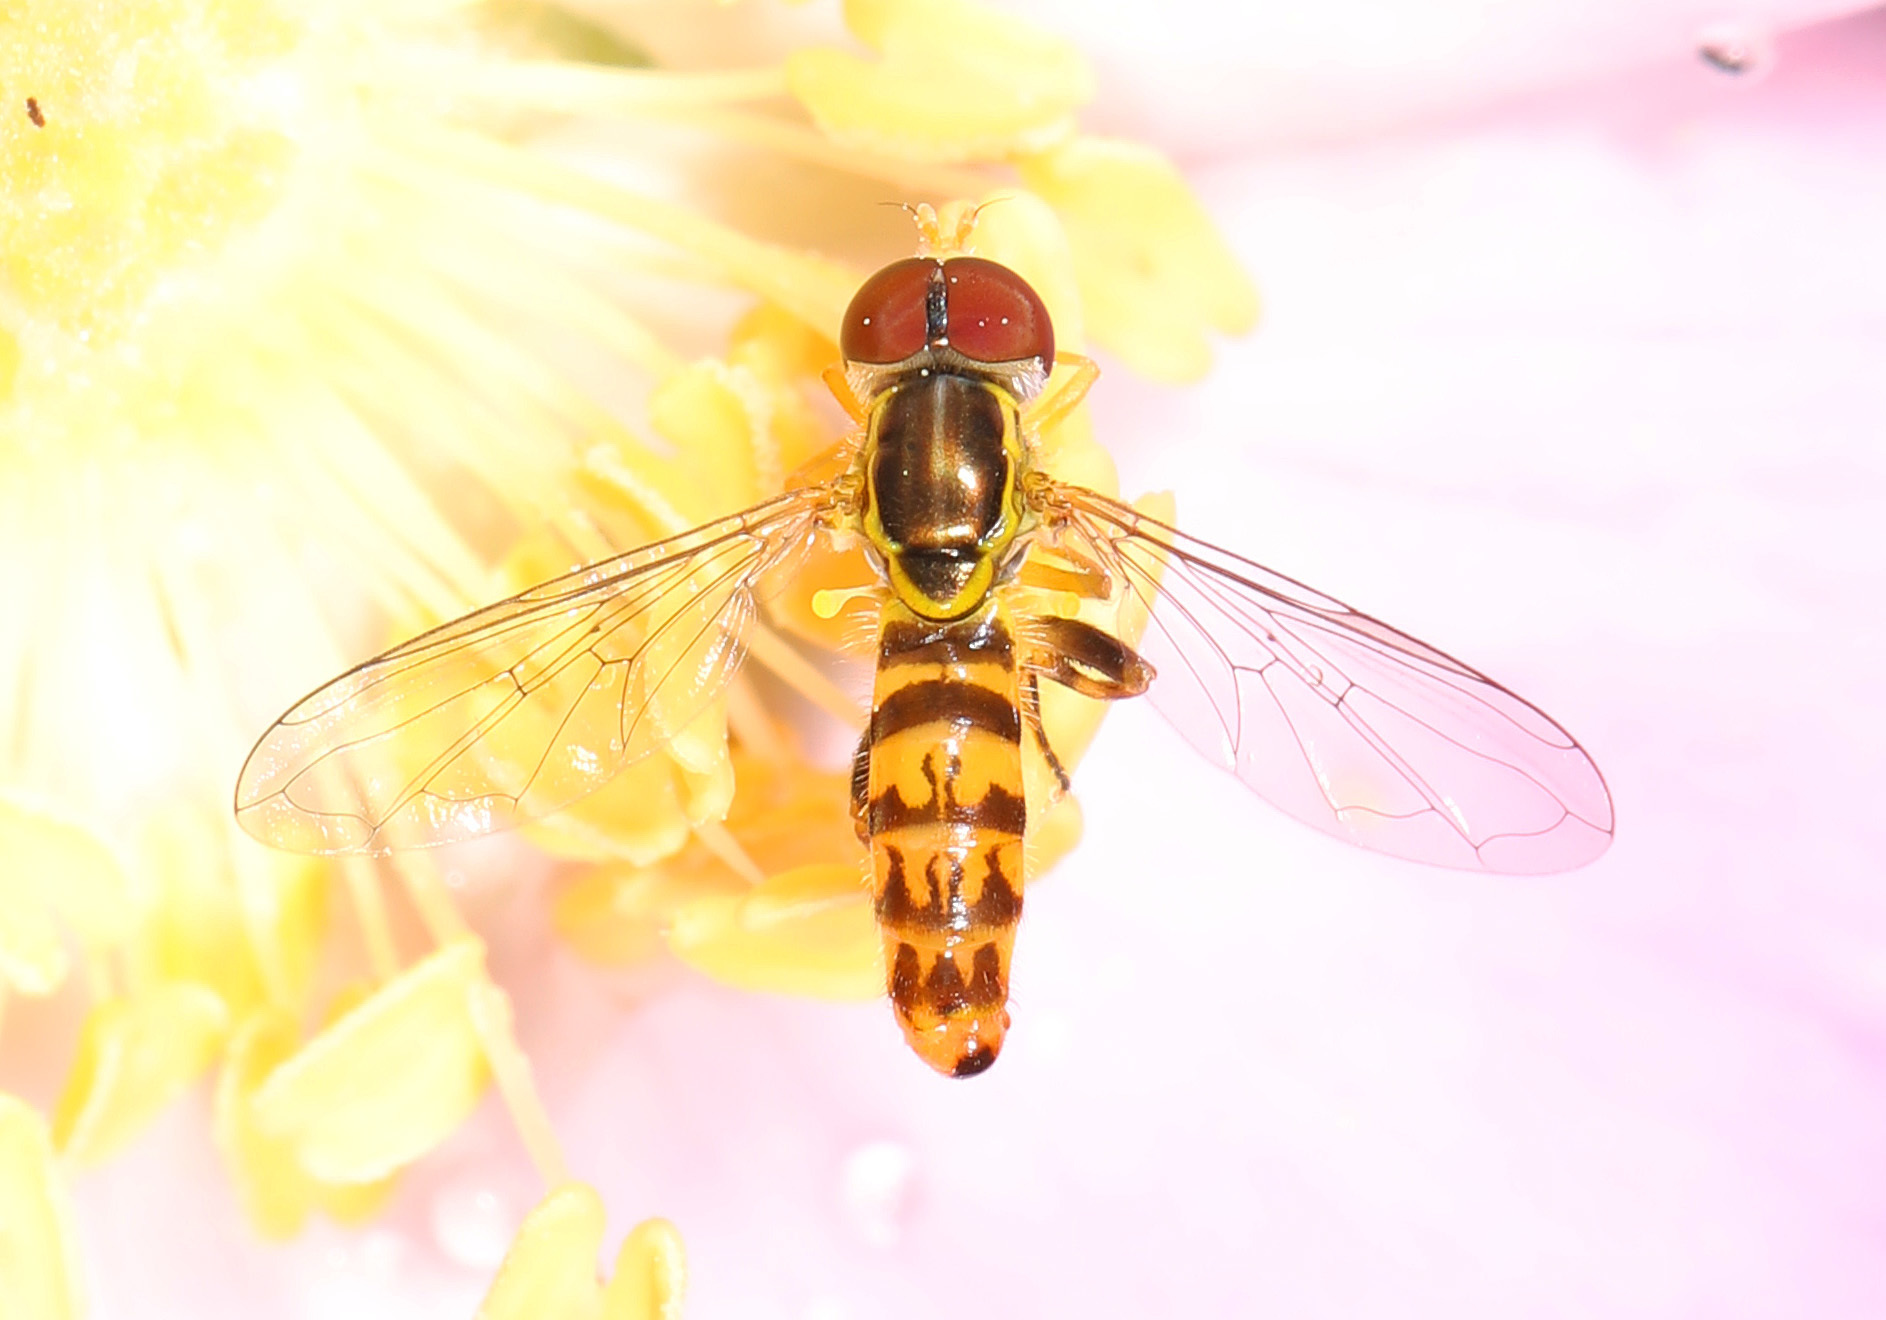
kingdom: Animalia
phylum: Arthropoda
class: Insecta
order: Diptera
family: Syrphidae
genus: Toxomerus
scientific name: Toxomerus geminatus
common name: Eastern calligrapher
